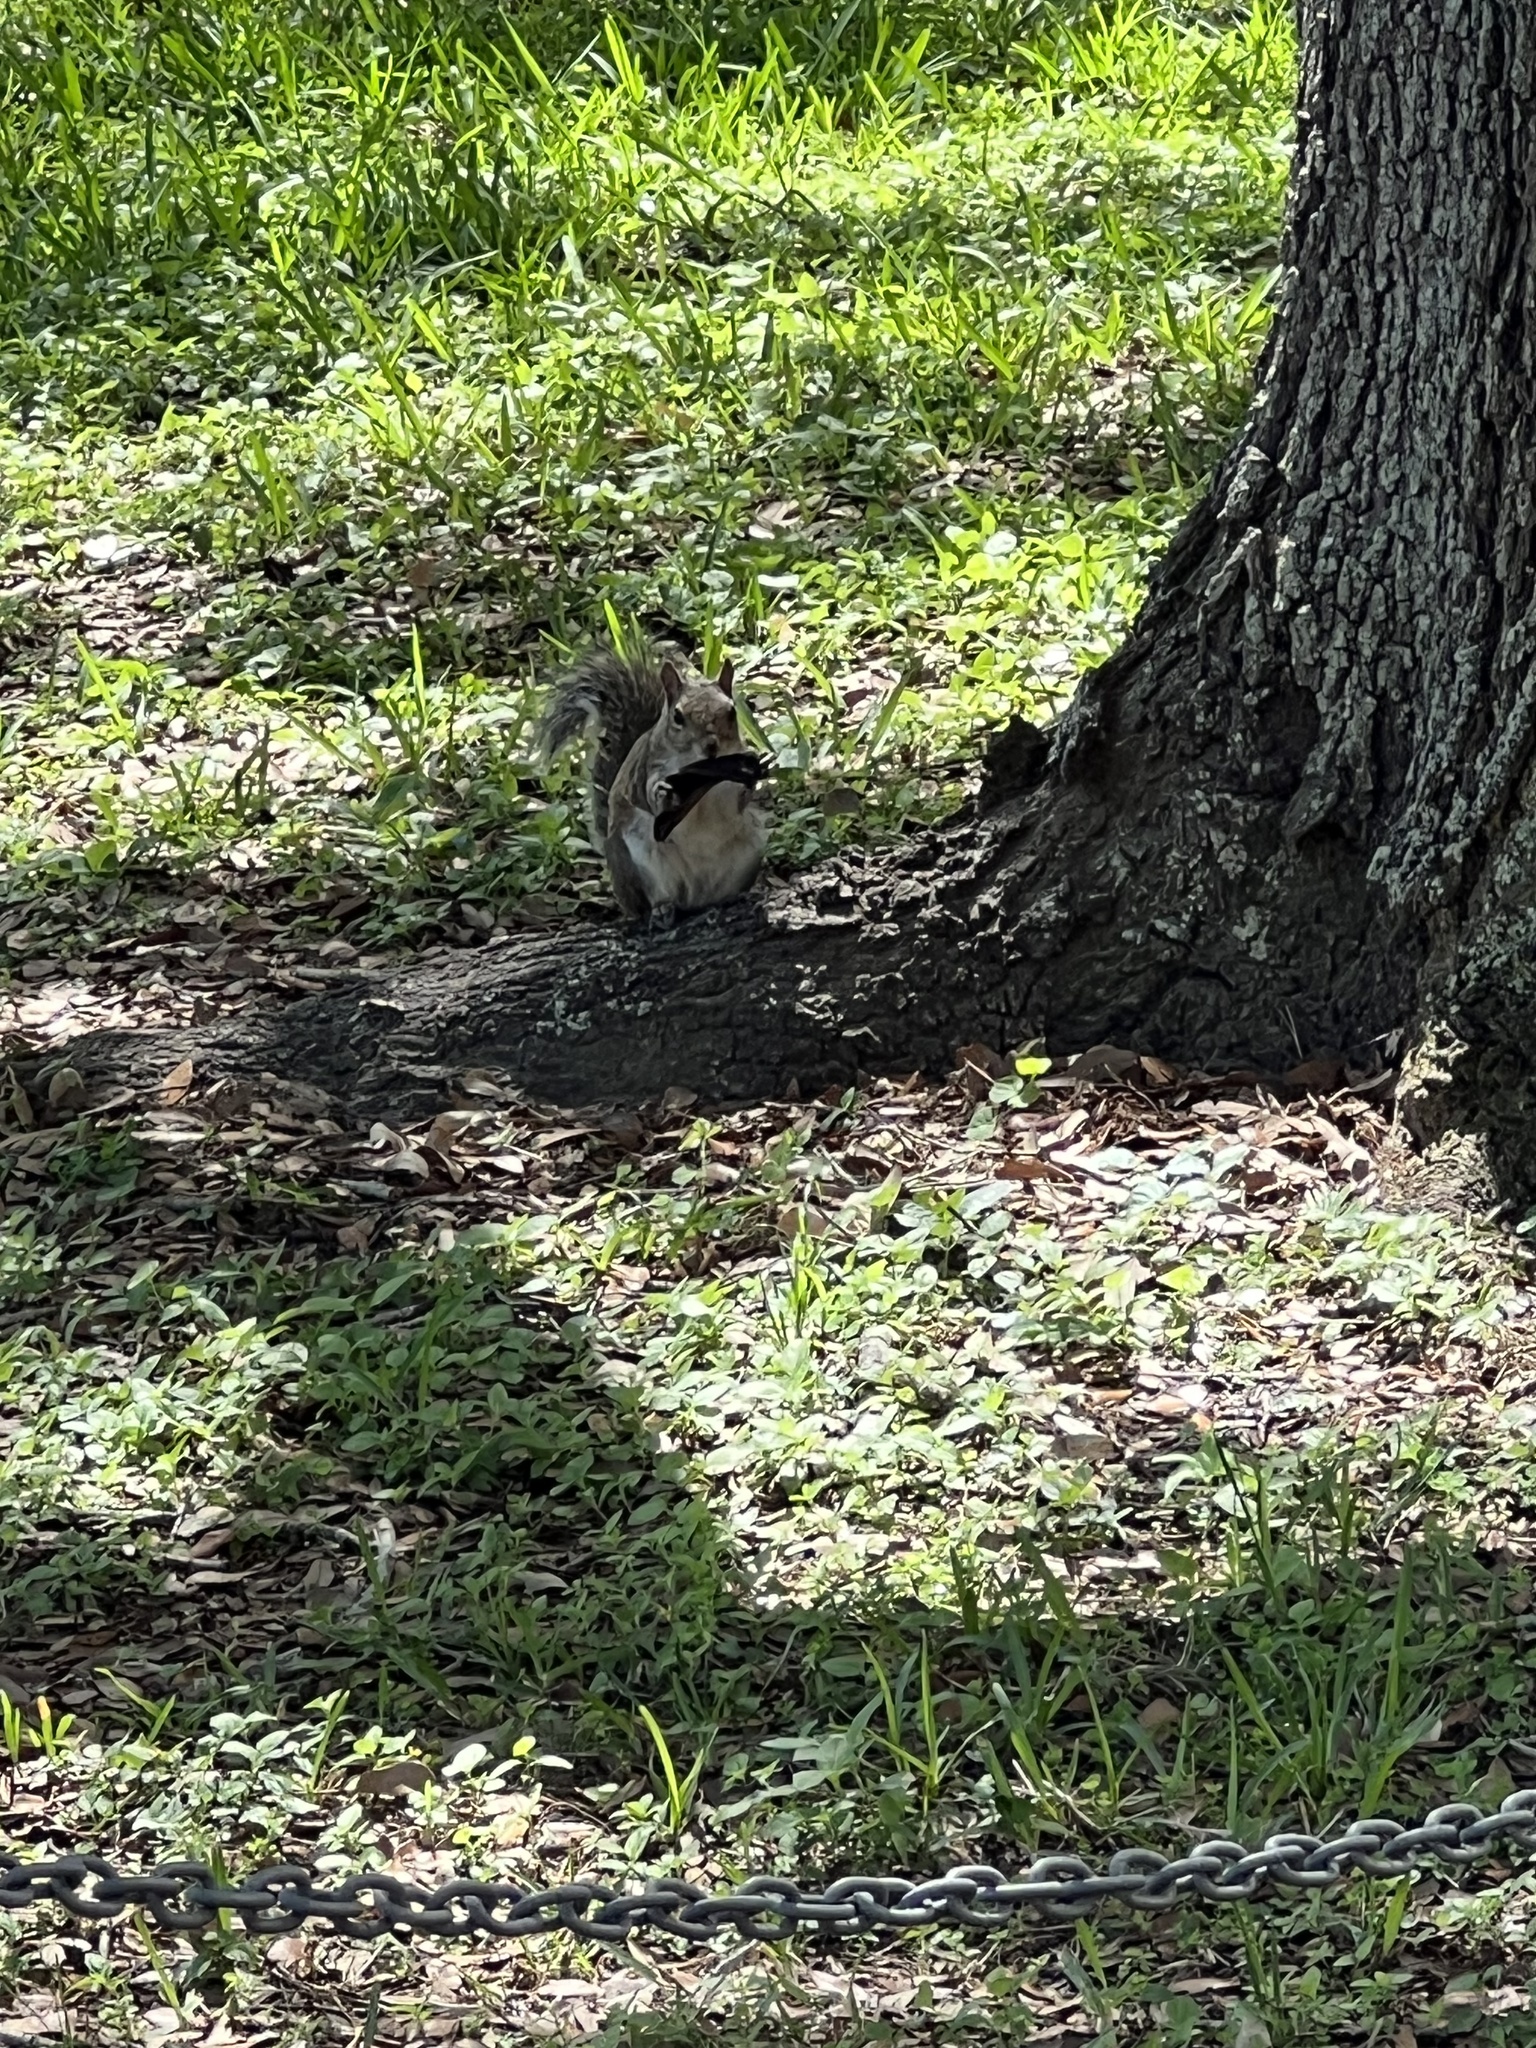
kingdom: Animalia
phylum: Chordata
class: Mammalia
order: Rodentia
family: Sciuridae
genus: Sciurus
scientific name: Sciurus carolinensis
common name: Eastern gray squirrel
